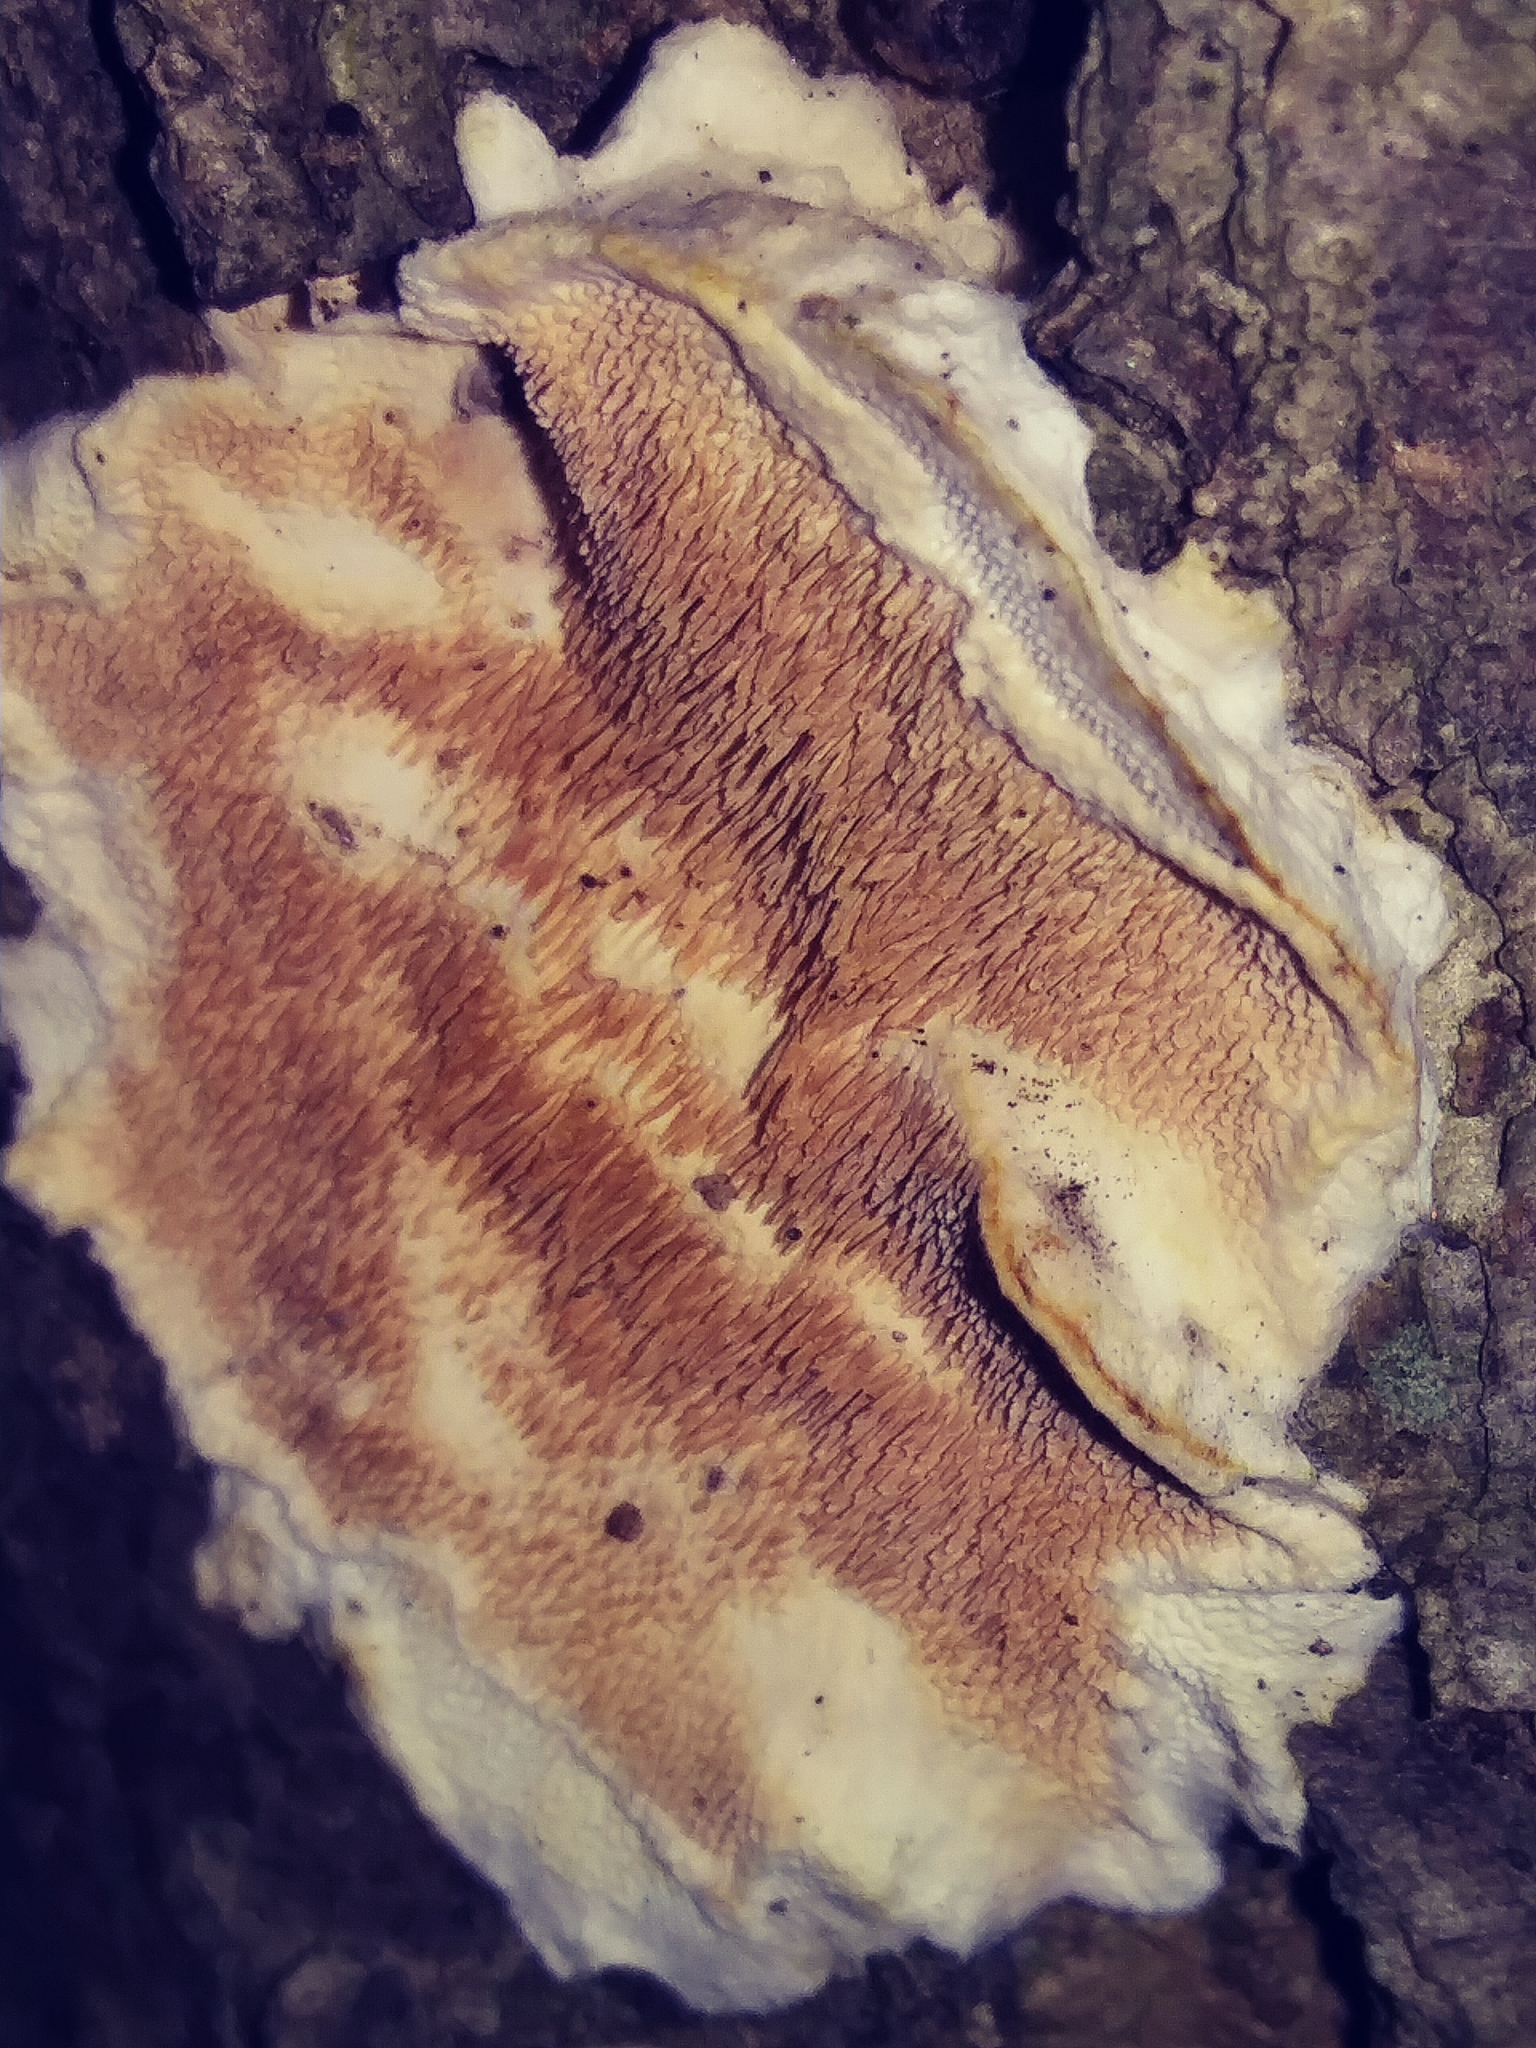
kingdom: Fungi
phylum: Basidiomycota
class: Agaricomycetes
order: Polyporales
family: Steccherinaceae
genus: Steccherinum
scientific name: Steccherinum ochraceum
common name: Ochre spreading tooth
